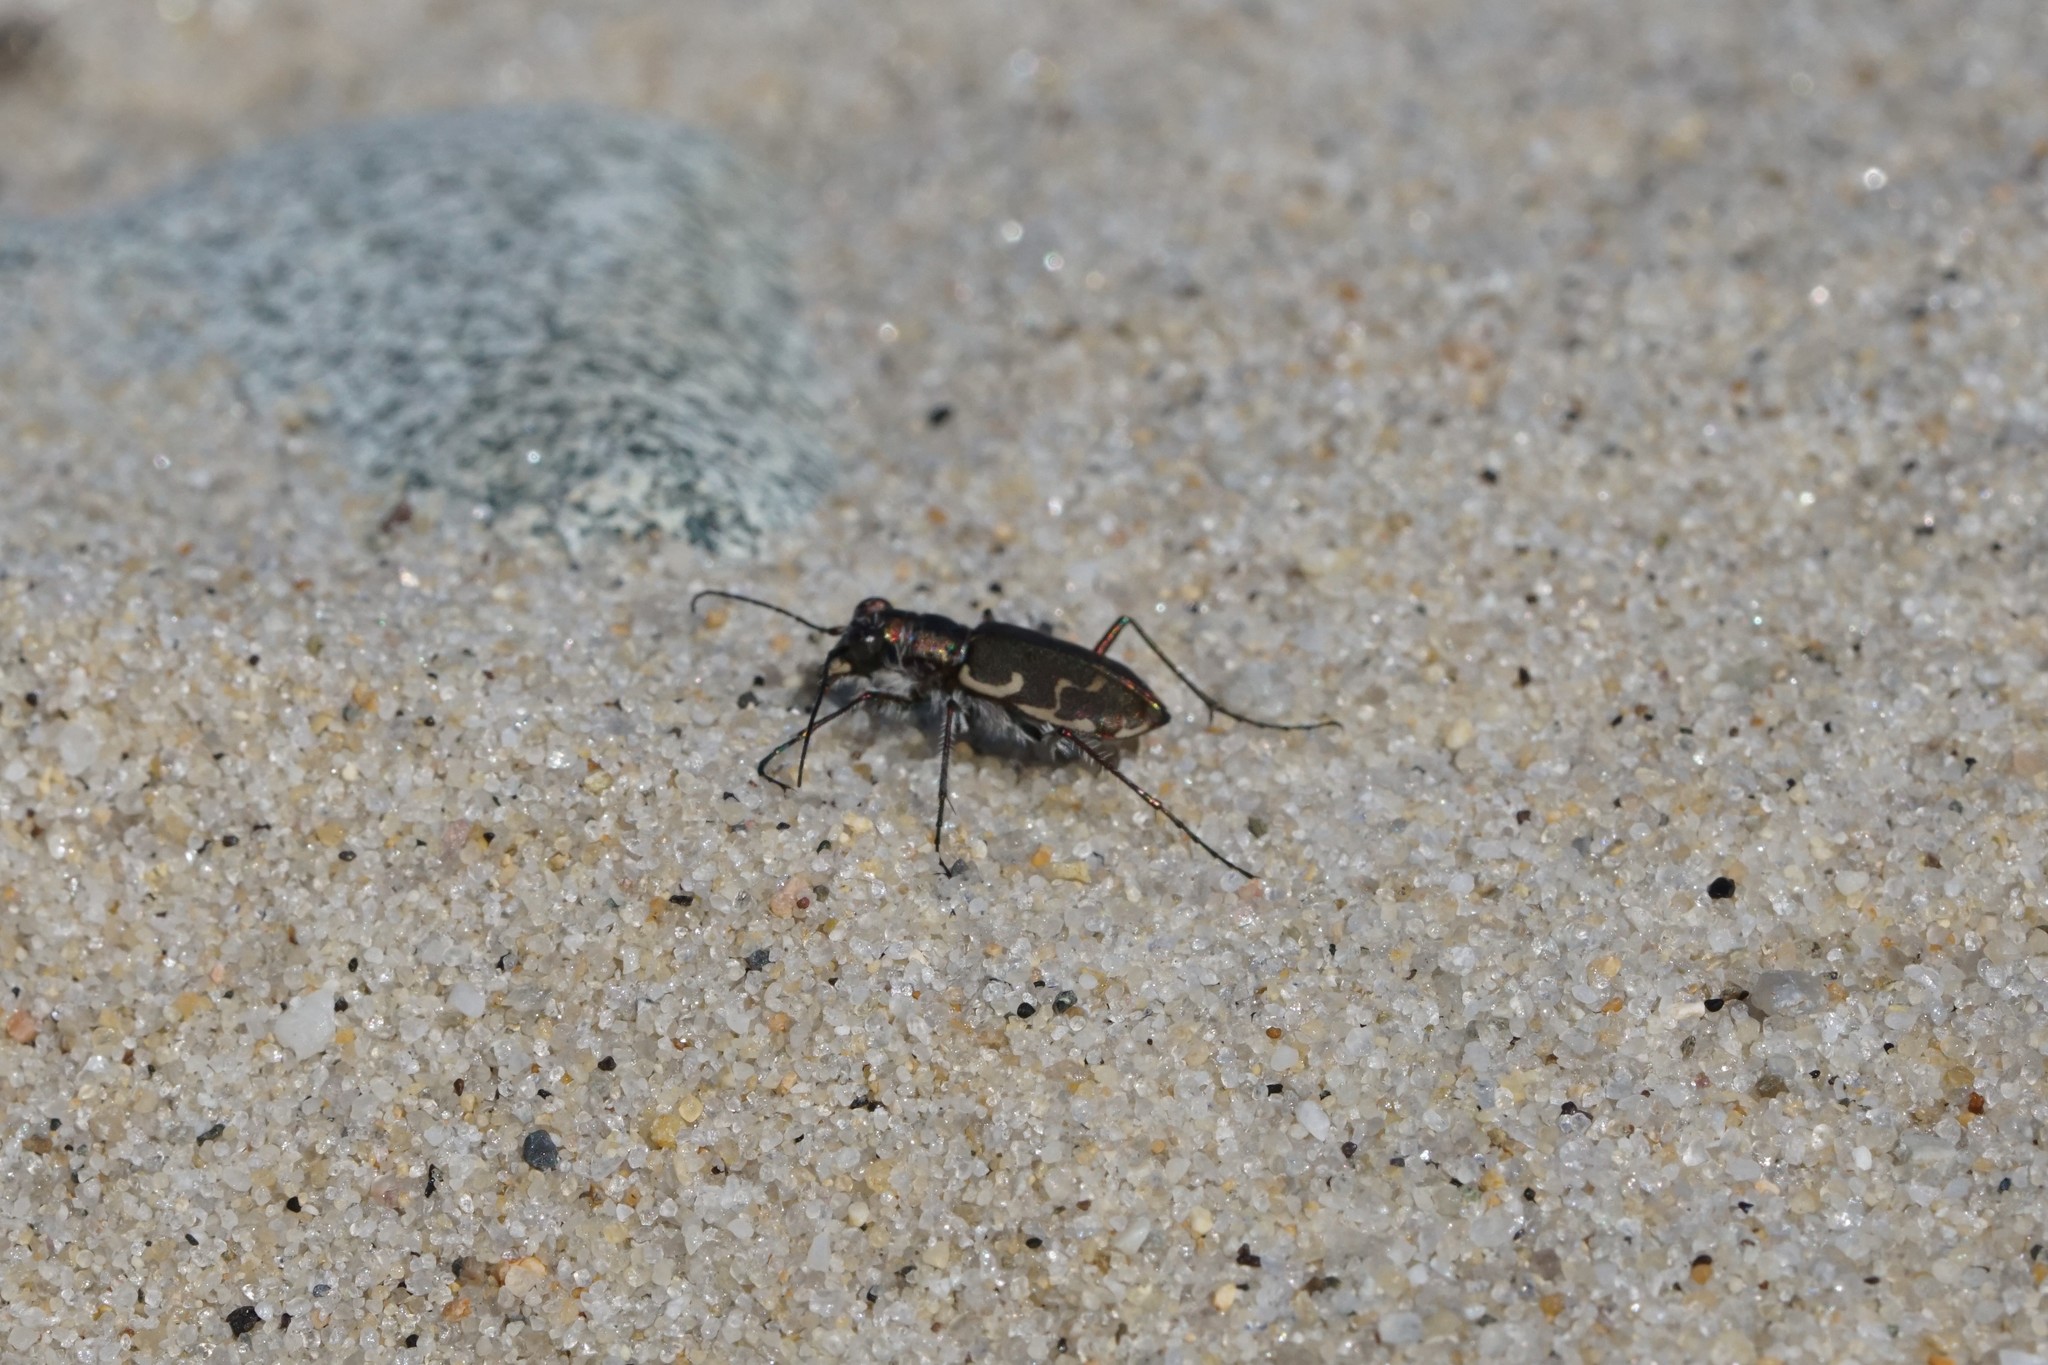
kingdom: Animalia
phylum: Arthropoda
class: Insecta
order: Coleoptera
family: Carabidae
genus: Cicindela
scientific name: Cicindela repanda
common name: Bronzed tiger beetle
